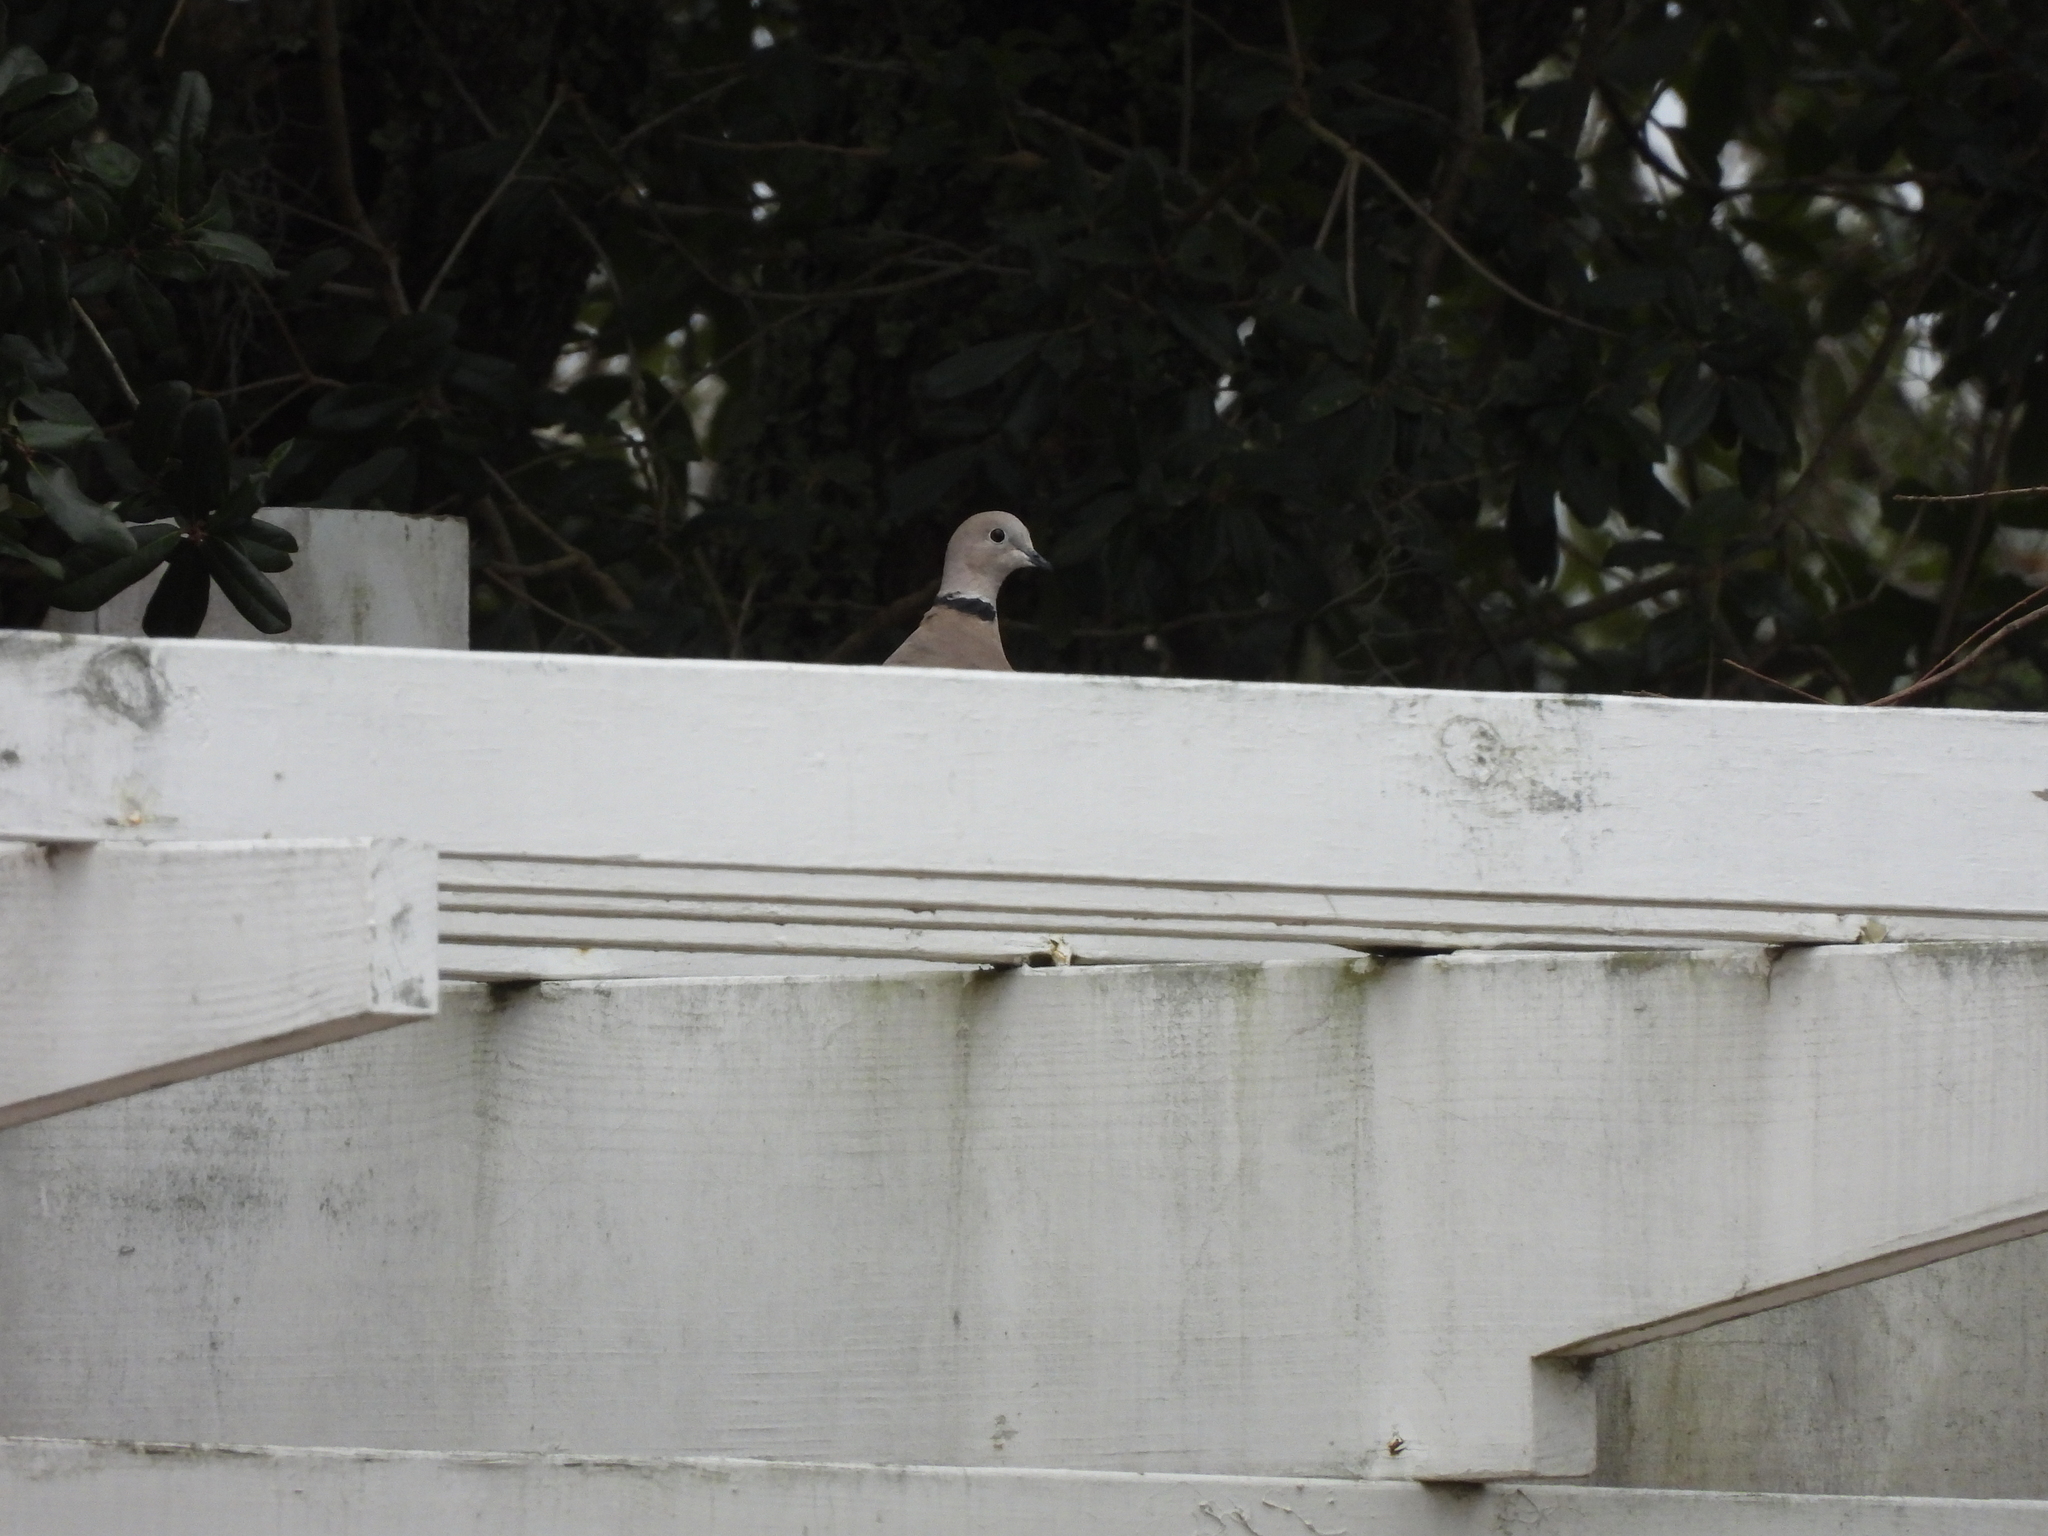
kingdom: Animalia
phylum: Chordata
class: Aves
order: Columbiformes
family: Columbidae
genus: Streptopelia
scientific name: Streptopelia decaocto
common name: Eurasian collared dove
